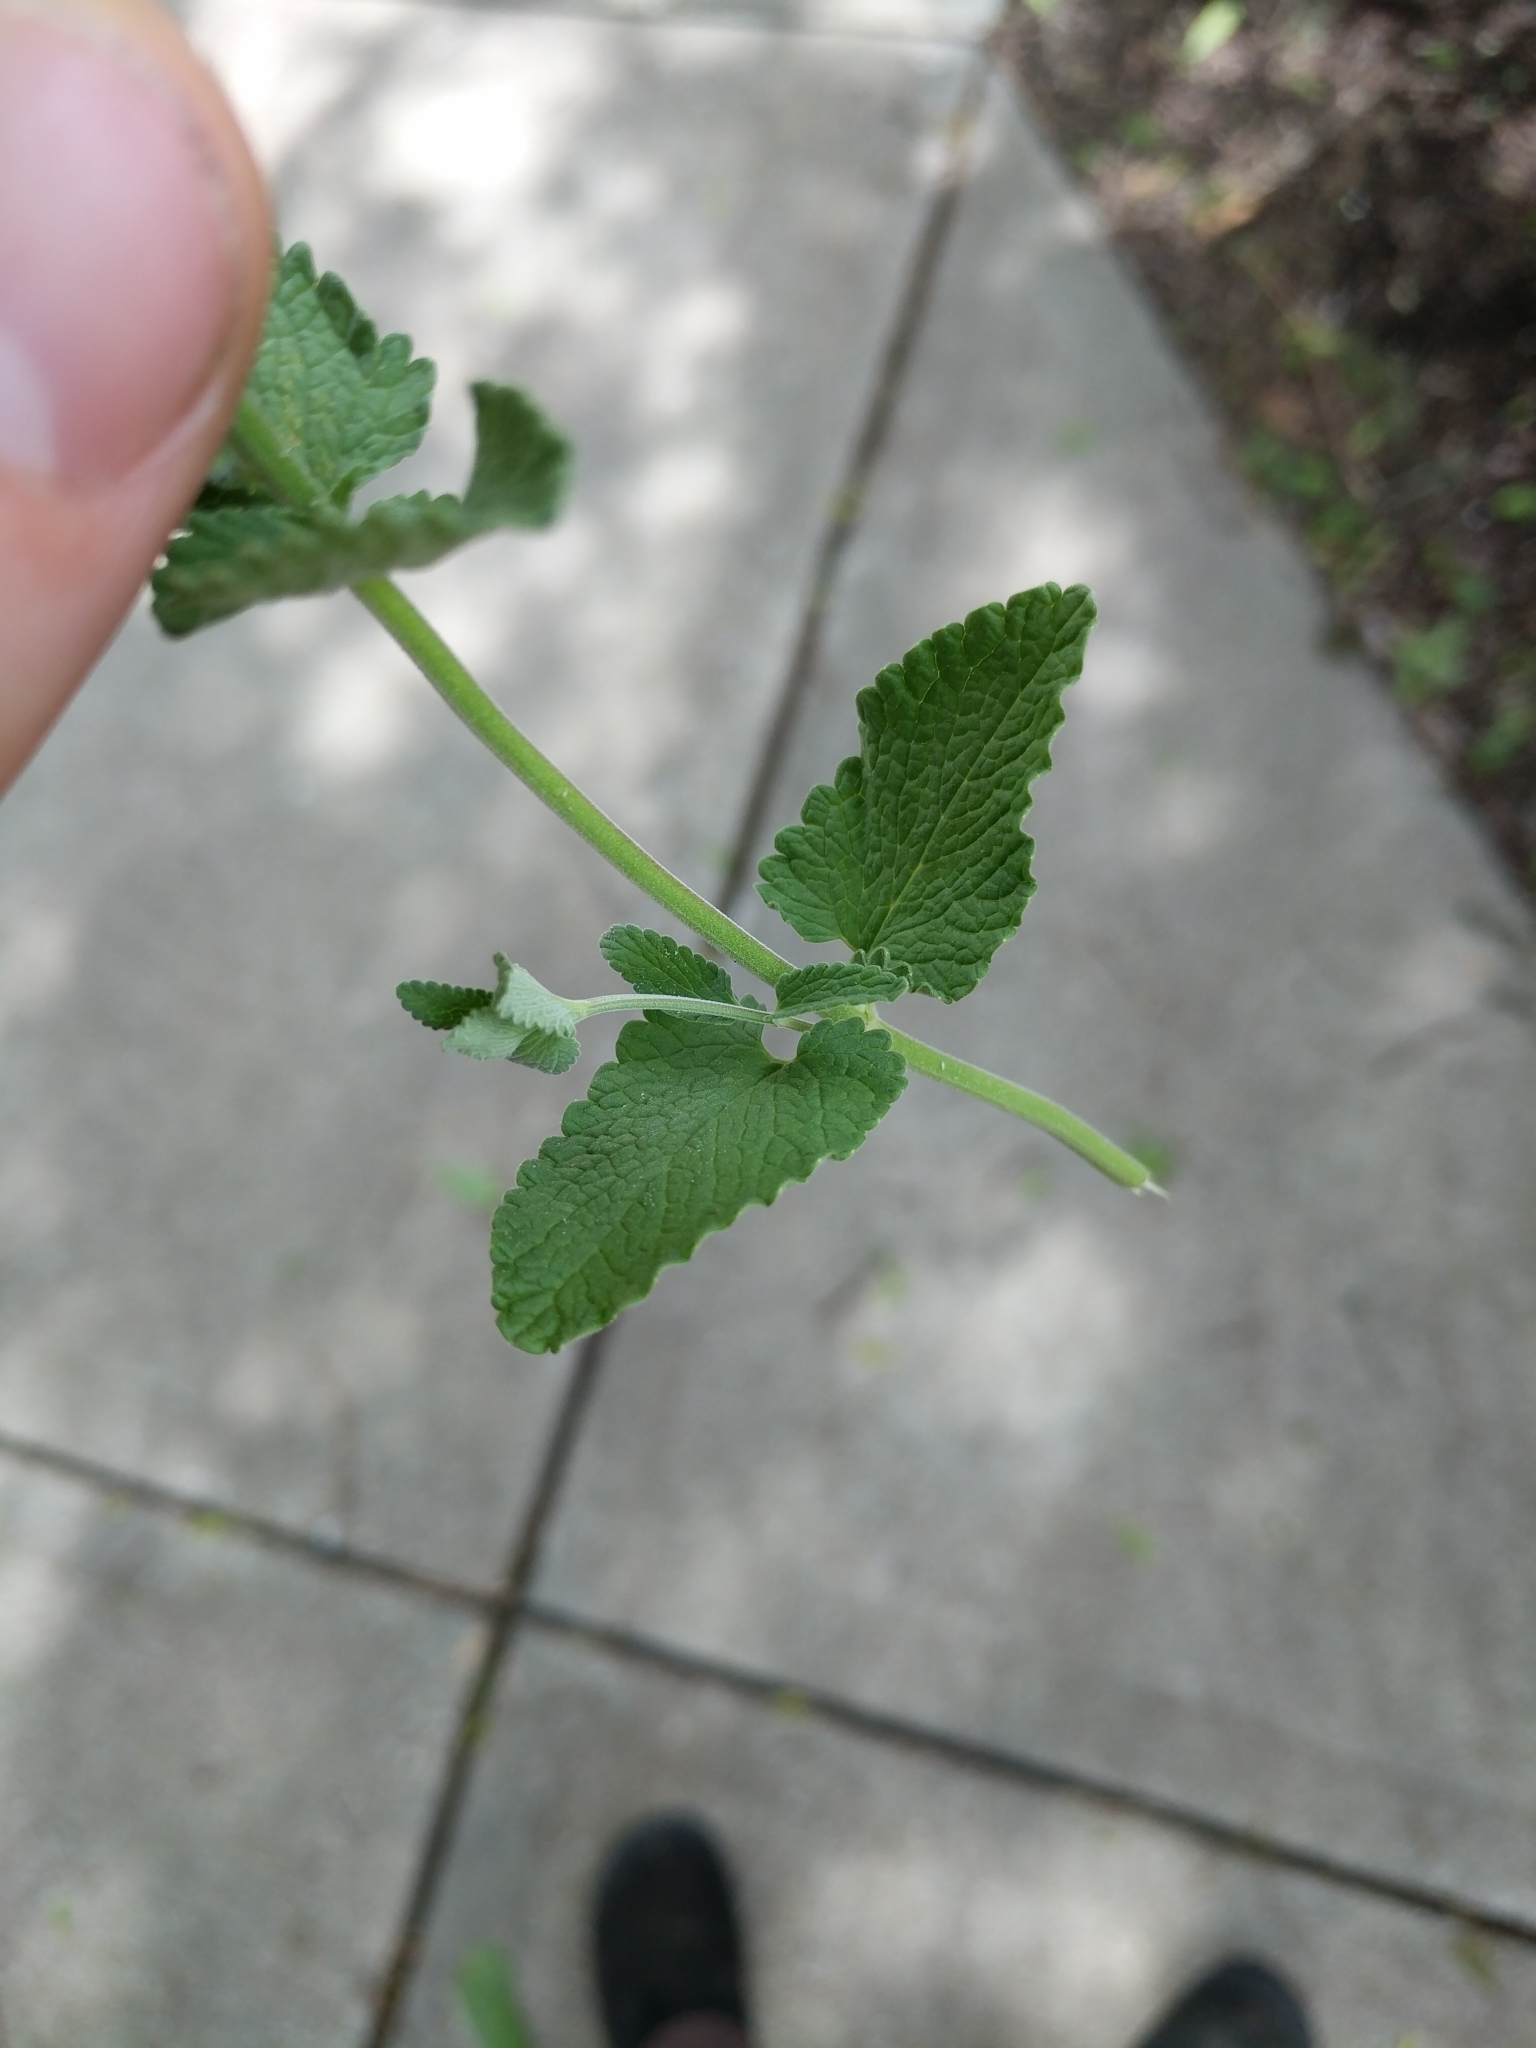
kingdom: Plantae
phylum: Tracheophyta
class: Magnoliopsida
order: Lamiales
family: Lamiaceae
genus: Nepeta
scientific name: Nepeta cataria
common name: Catnip
